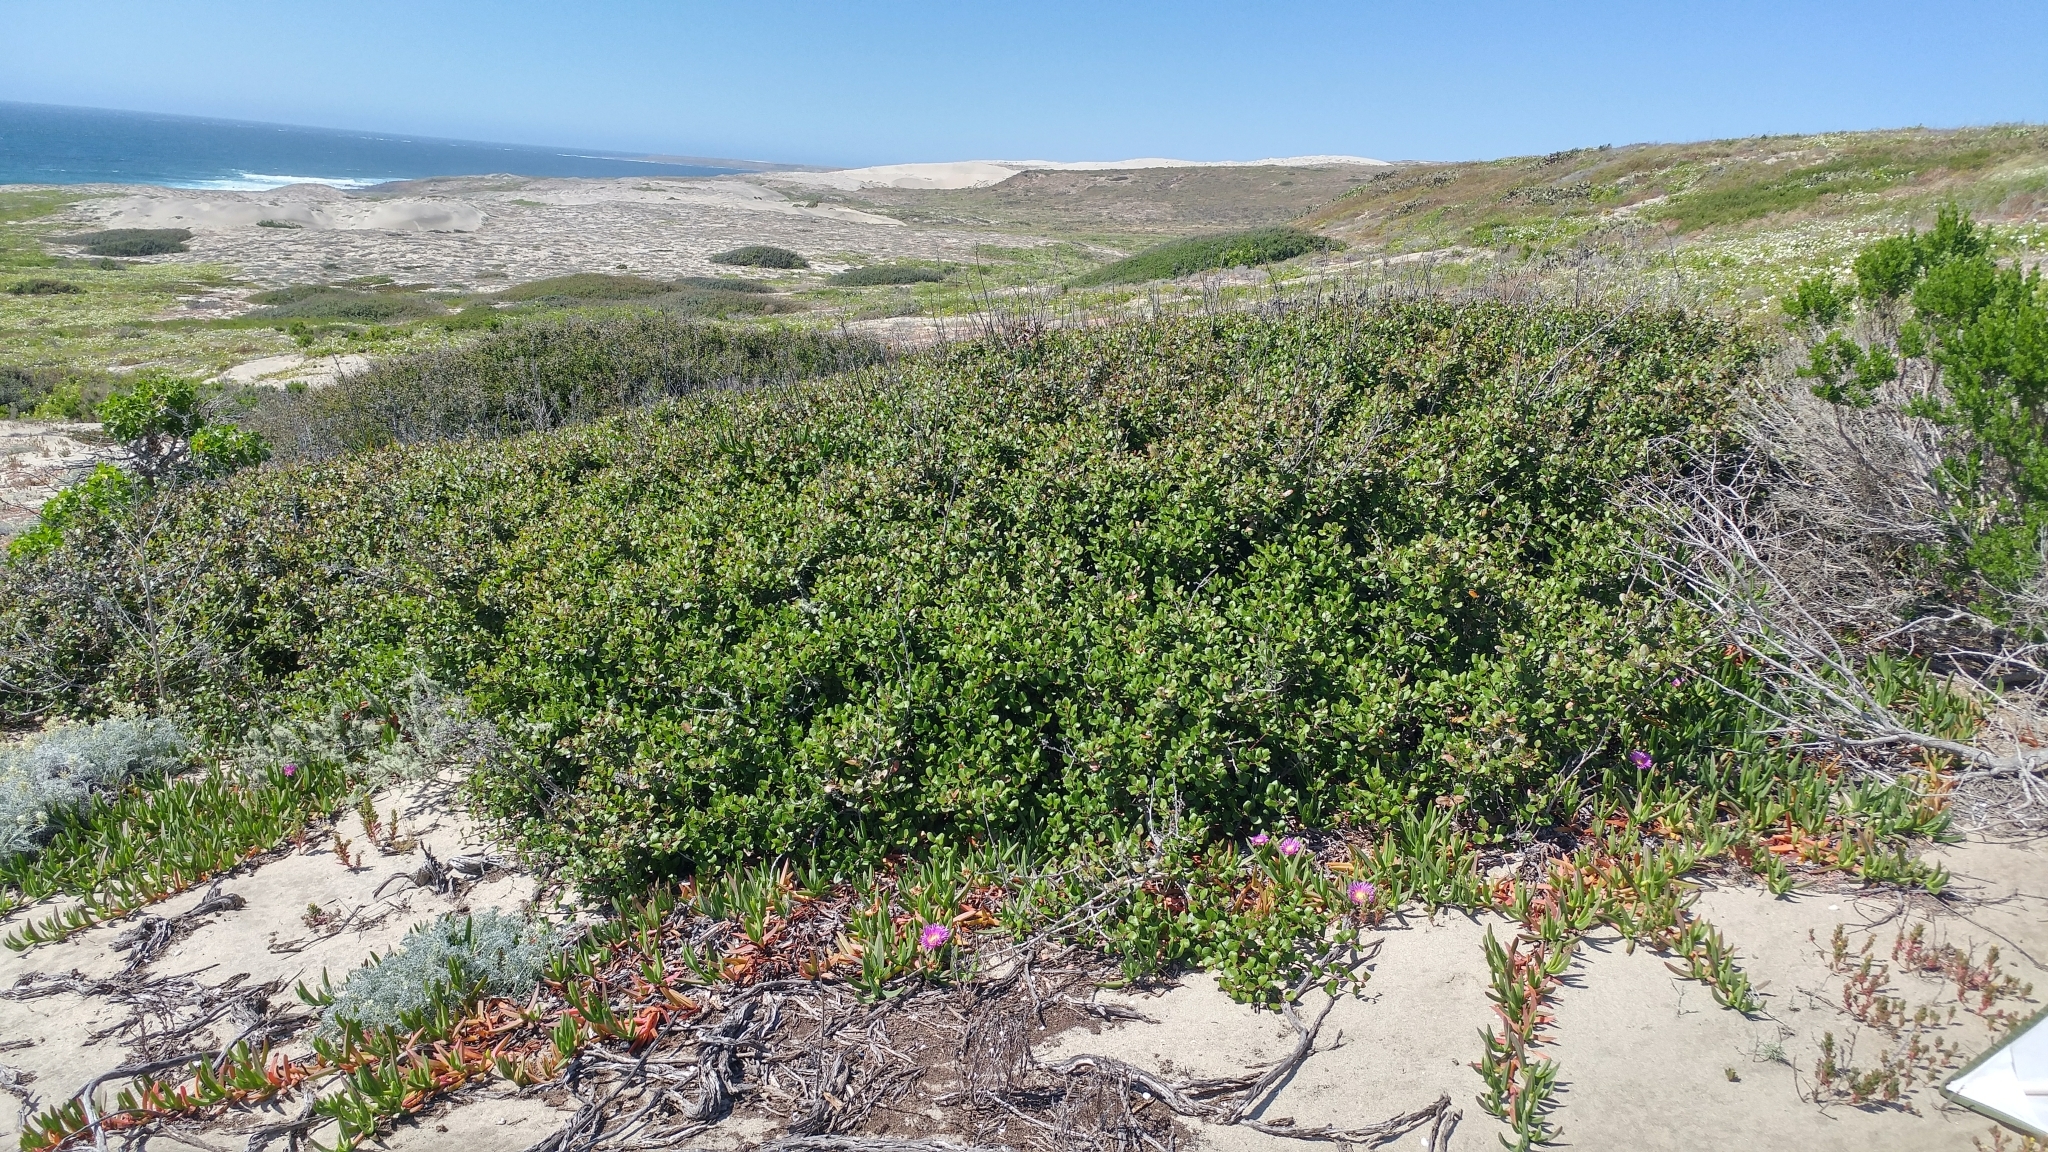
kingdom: Plantae
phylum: Tracheophyta
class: Magnoliopsida
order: Sapindales
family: Anacardiaceae
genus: Rhus
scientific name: Rhus integrifolia
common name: Lemonade sumac
